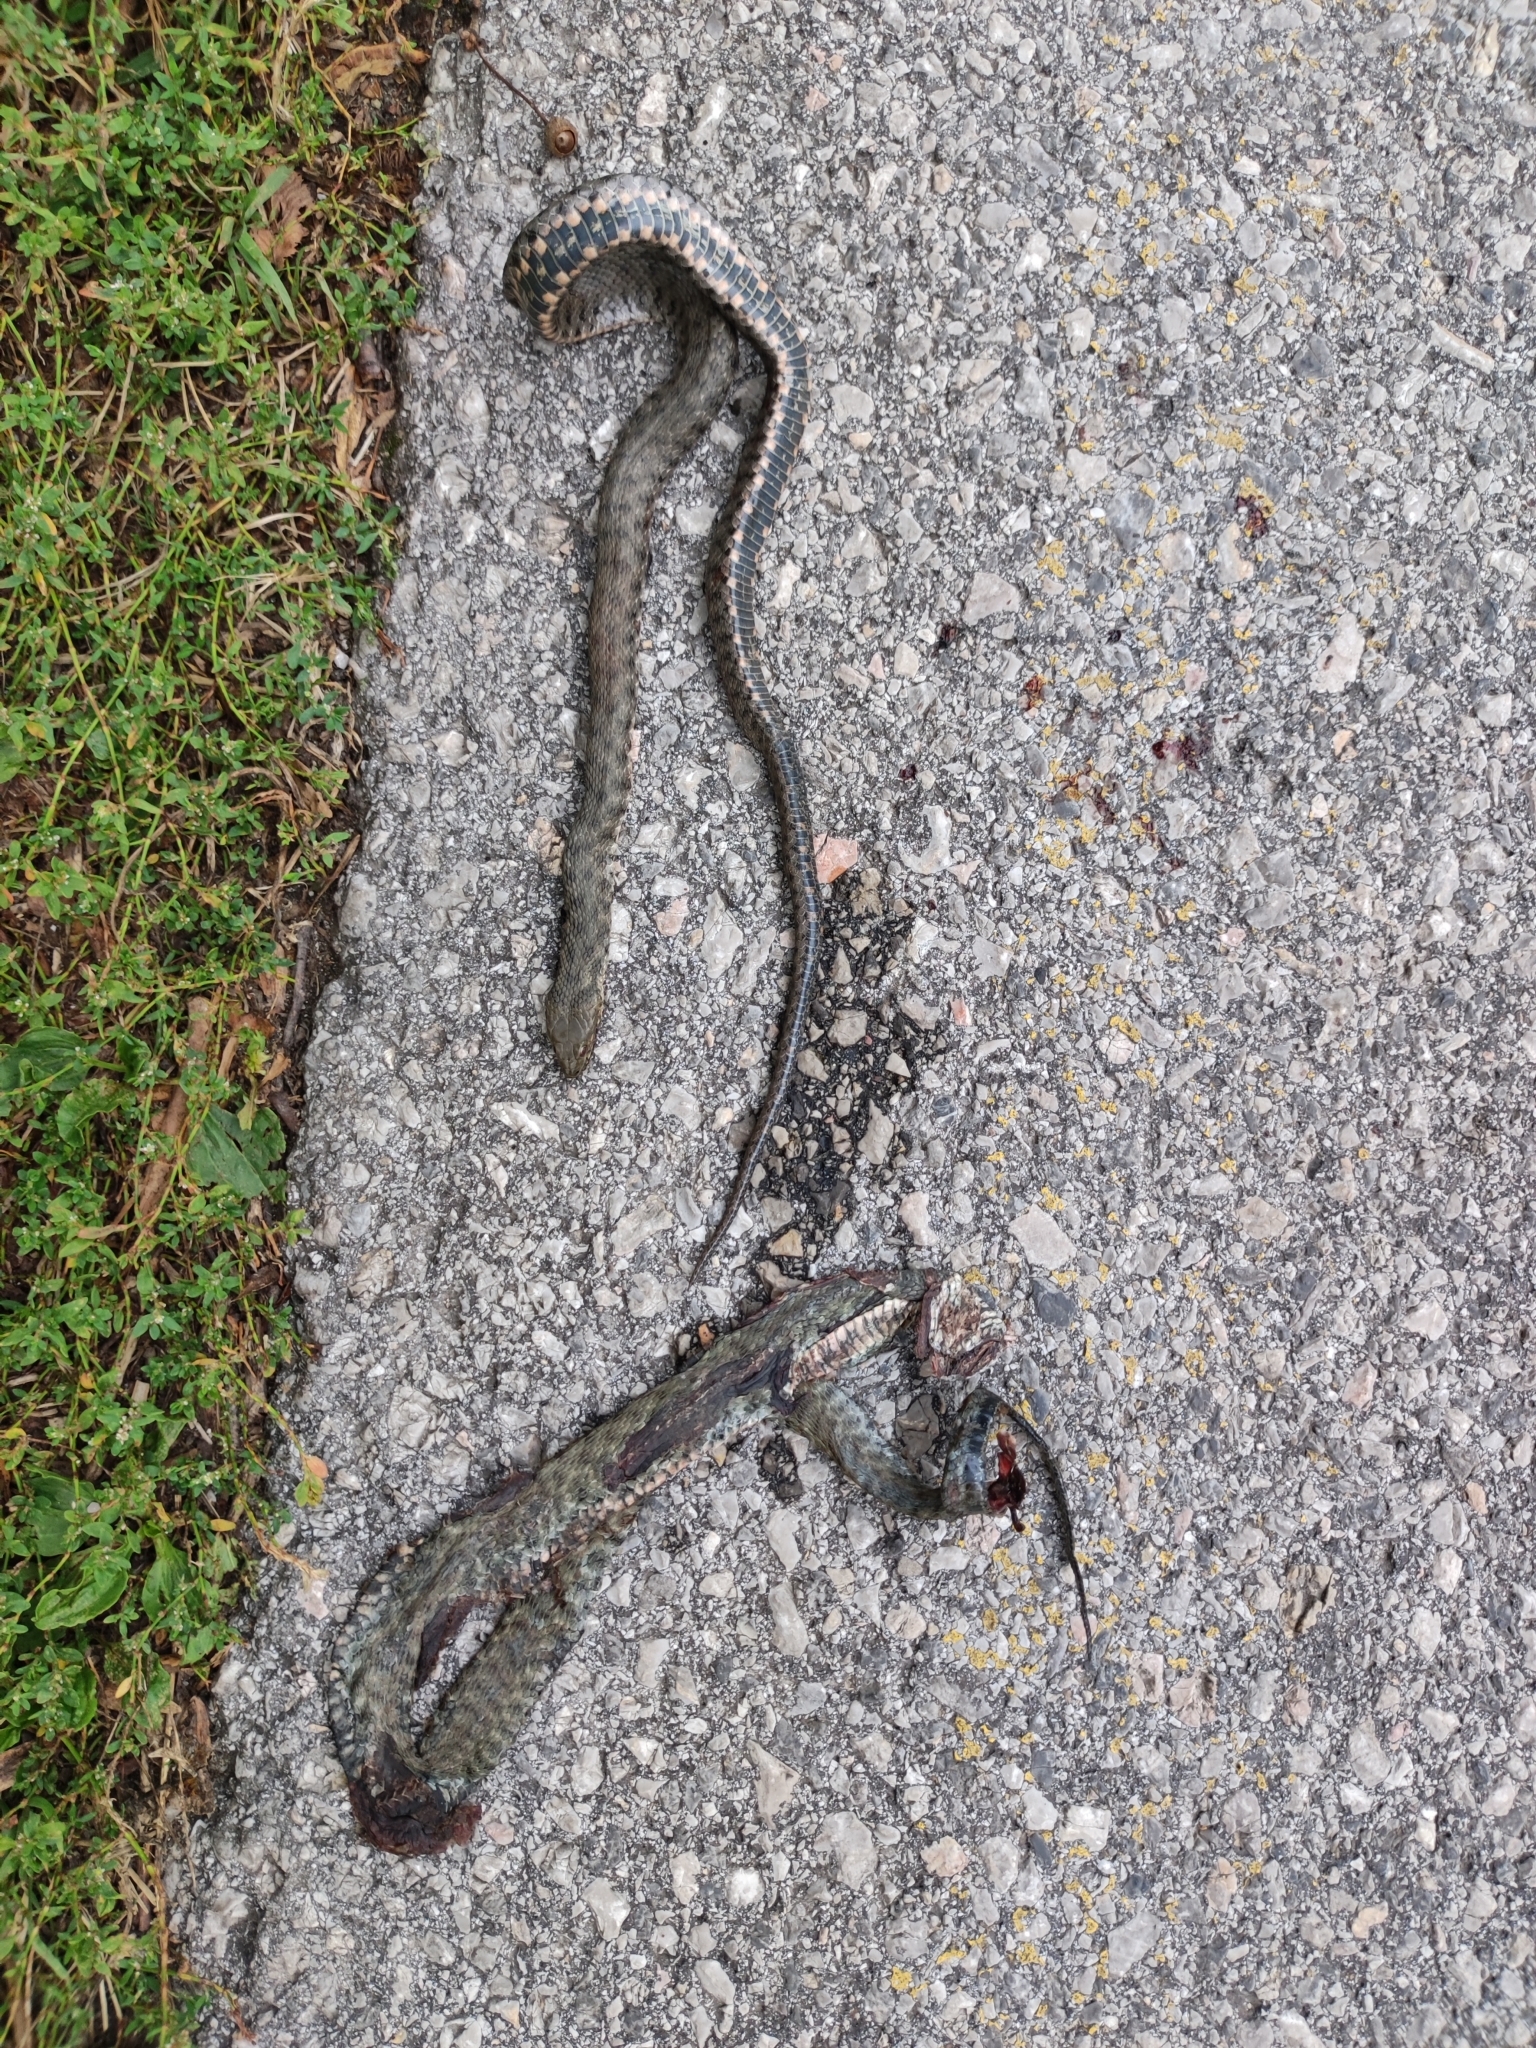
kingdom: Animalia
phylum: Chordata
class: Squamata
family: Colubridae
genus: Natrix
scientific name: Natrix tessellata
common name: Dice snake
